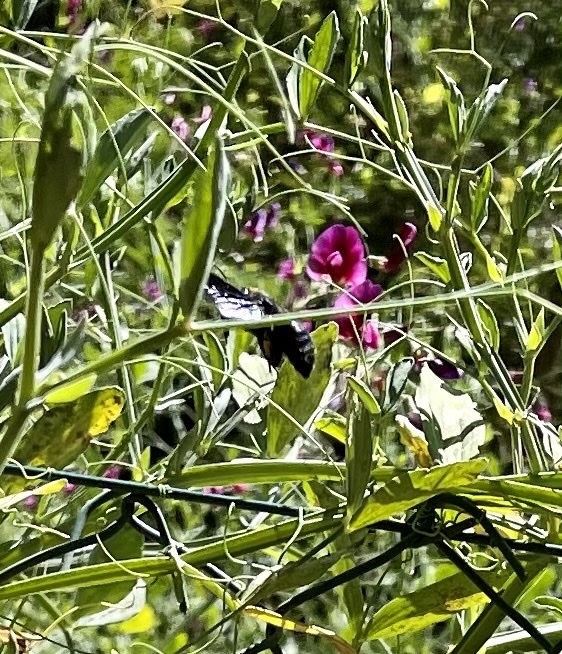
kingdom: Animalia
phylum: Arthropoda
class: Insecta
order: Hymenoptera
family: Apidae
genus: Xylocopa
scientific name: Xylocopa violacea
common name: Violet carpenter bee
